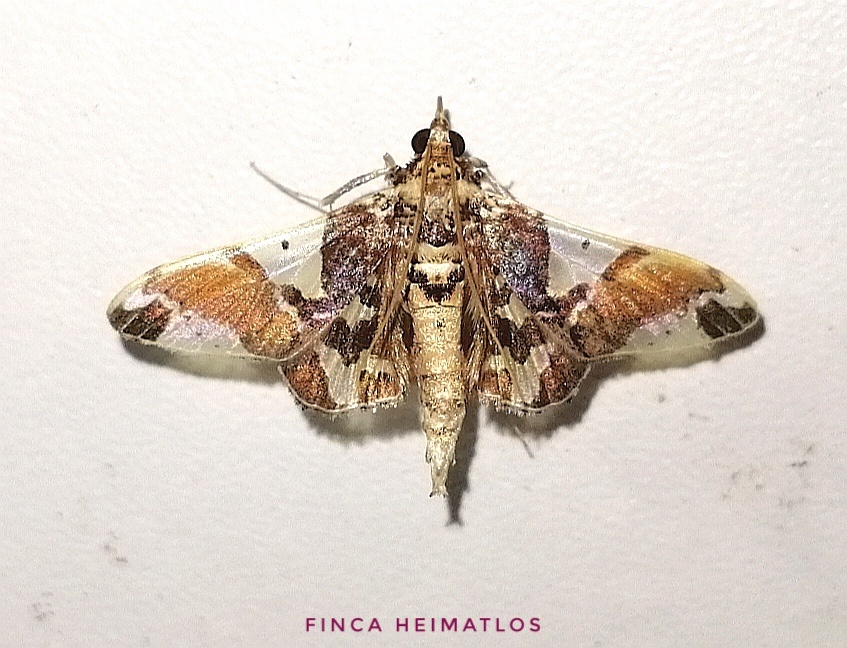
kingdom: Animalia
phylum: Arthropoda
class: Insecta
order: Lepidoptera
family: Crambidae
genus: Syngamilyta
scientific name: Syngamilyta apicolor
